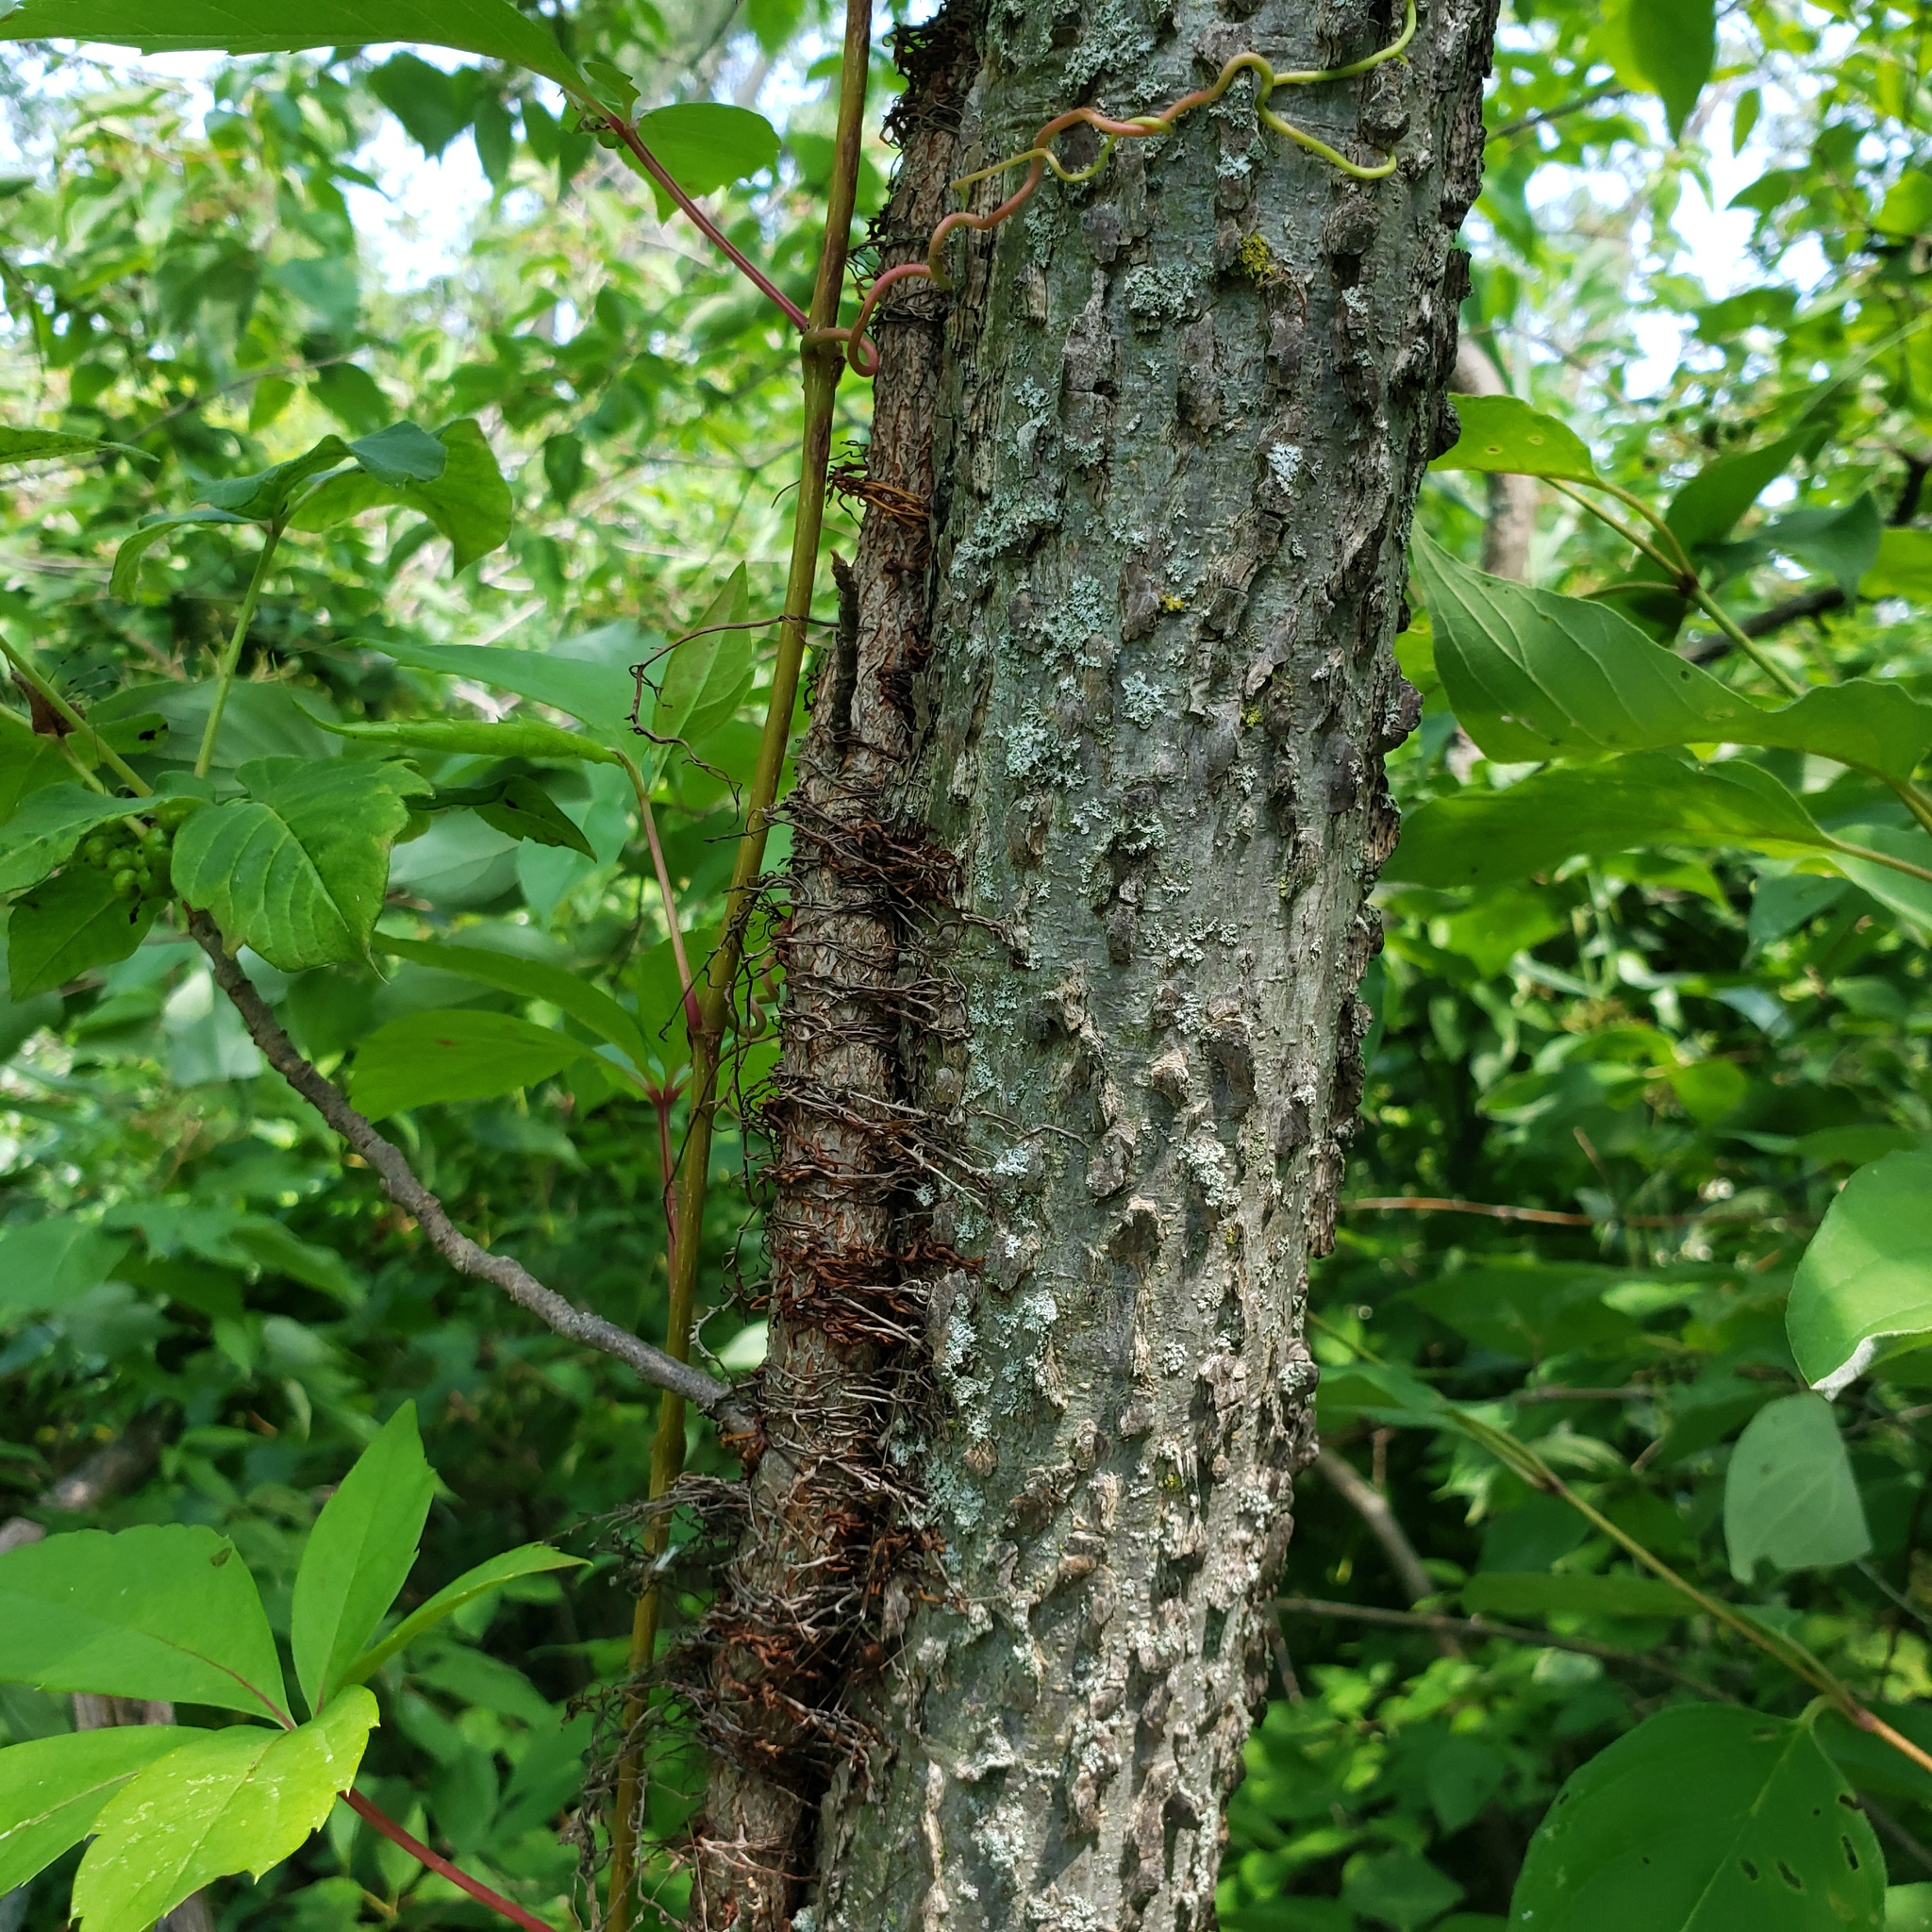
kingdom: Plantae
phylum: Tracheophyta
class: Magnoliopsida
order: Sapindales
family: Anacardiaceae
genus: Toxicodendron
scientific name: Toxicodendron radicans
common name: Poison ivy
